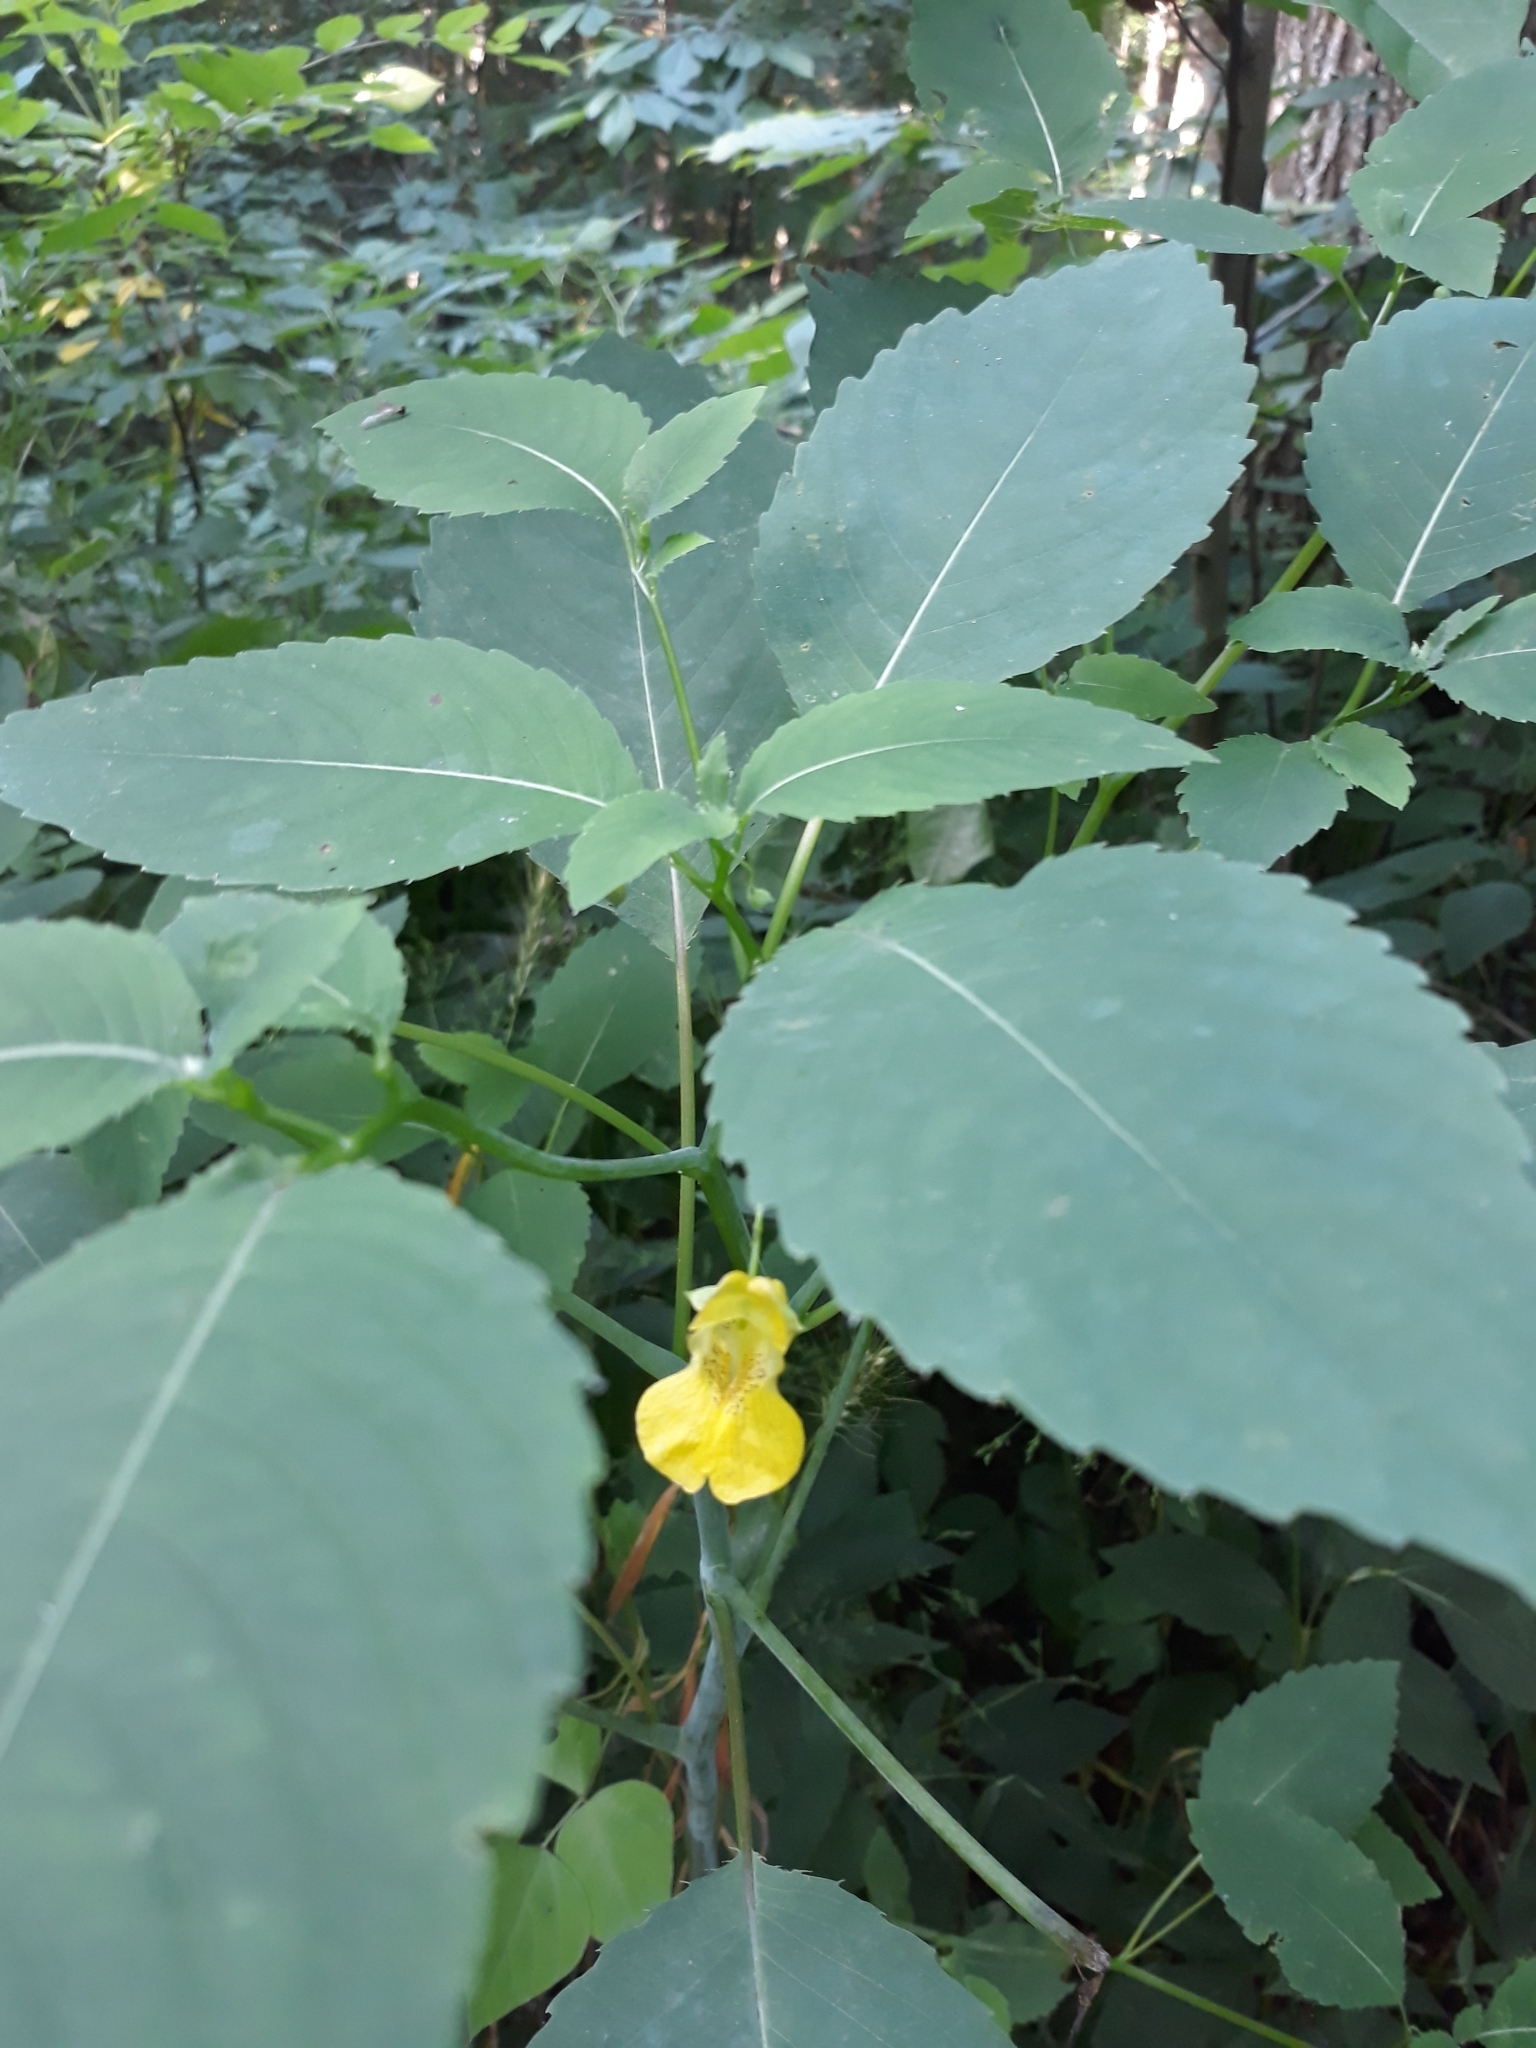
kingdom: Plantae
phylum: Tracheophyta
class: Magnoliopsida
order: Ericales
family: Balsaminaceae
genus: Impatiens
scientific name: Impatiens pallida
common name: Pale snapweed
